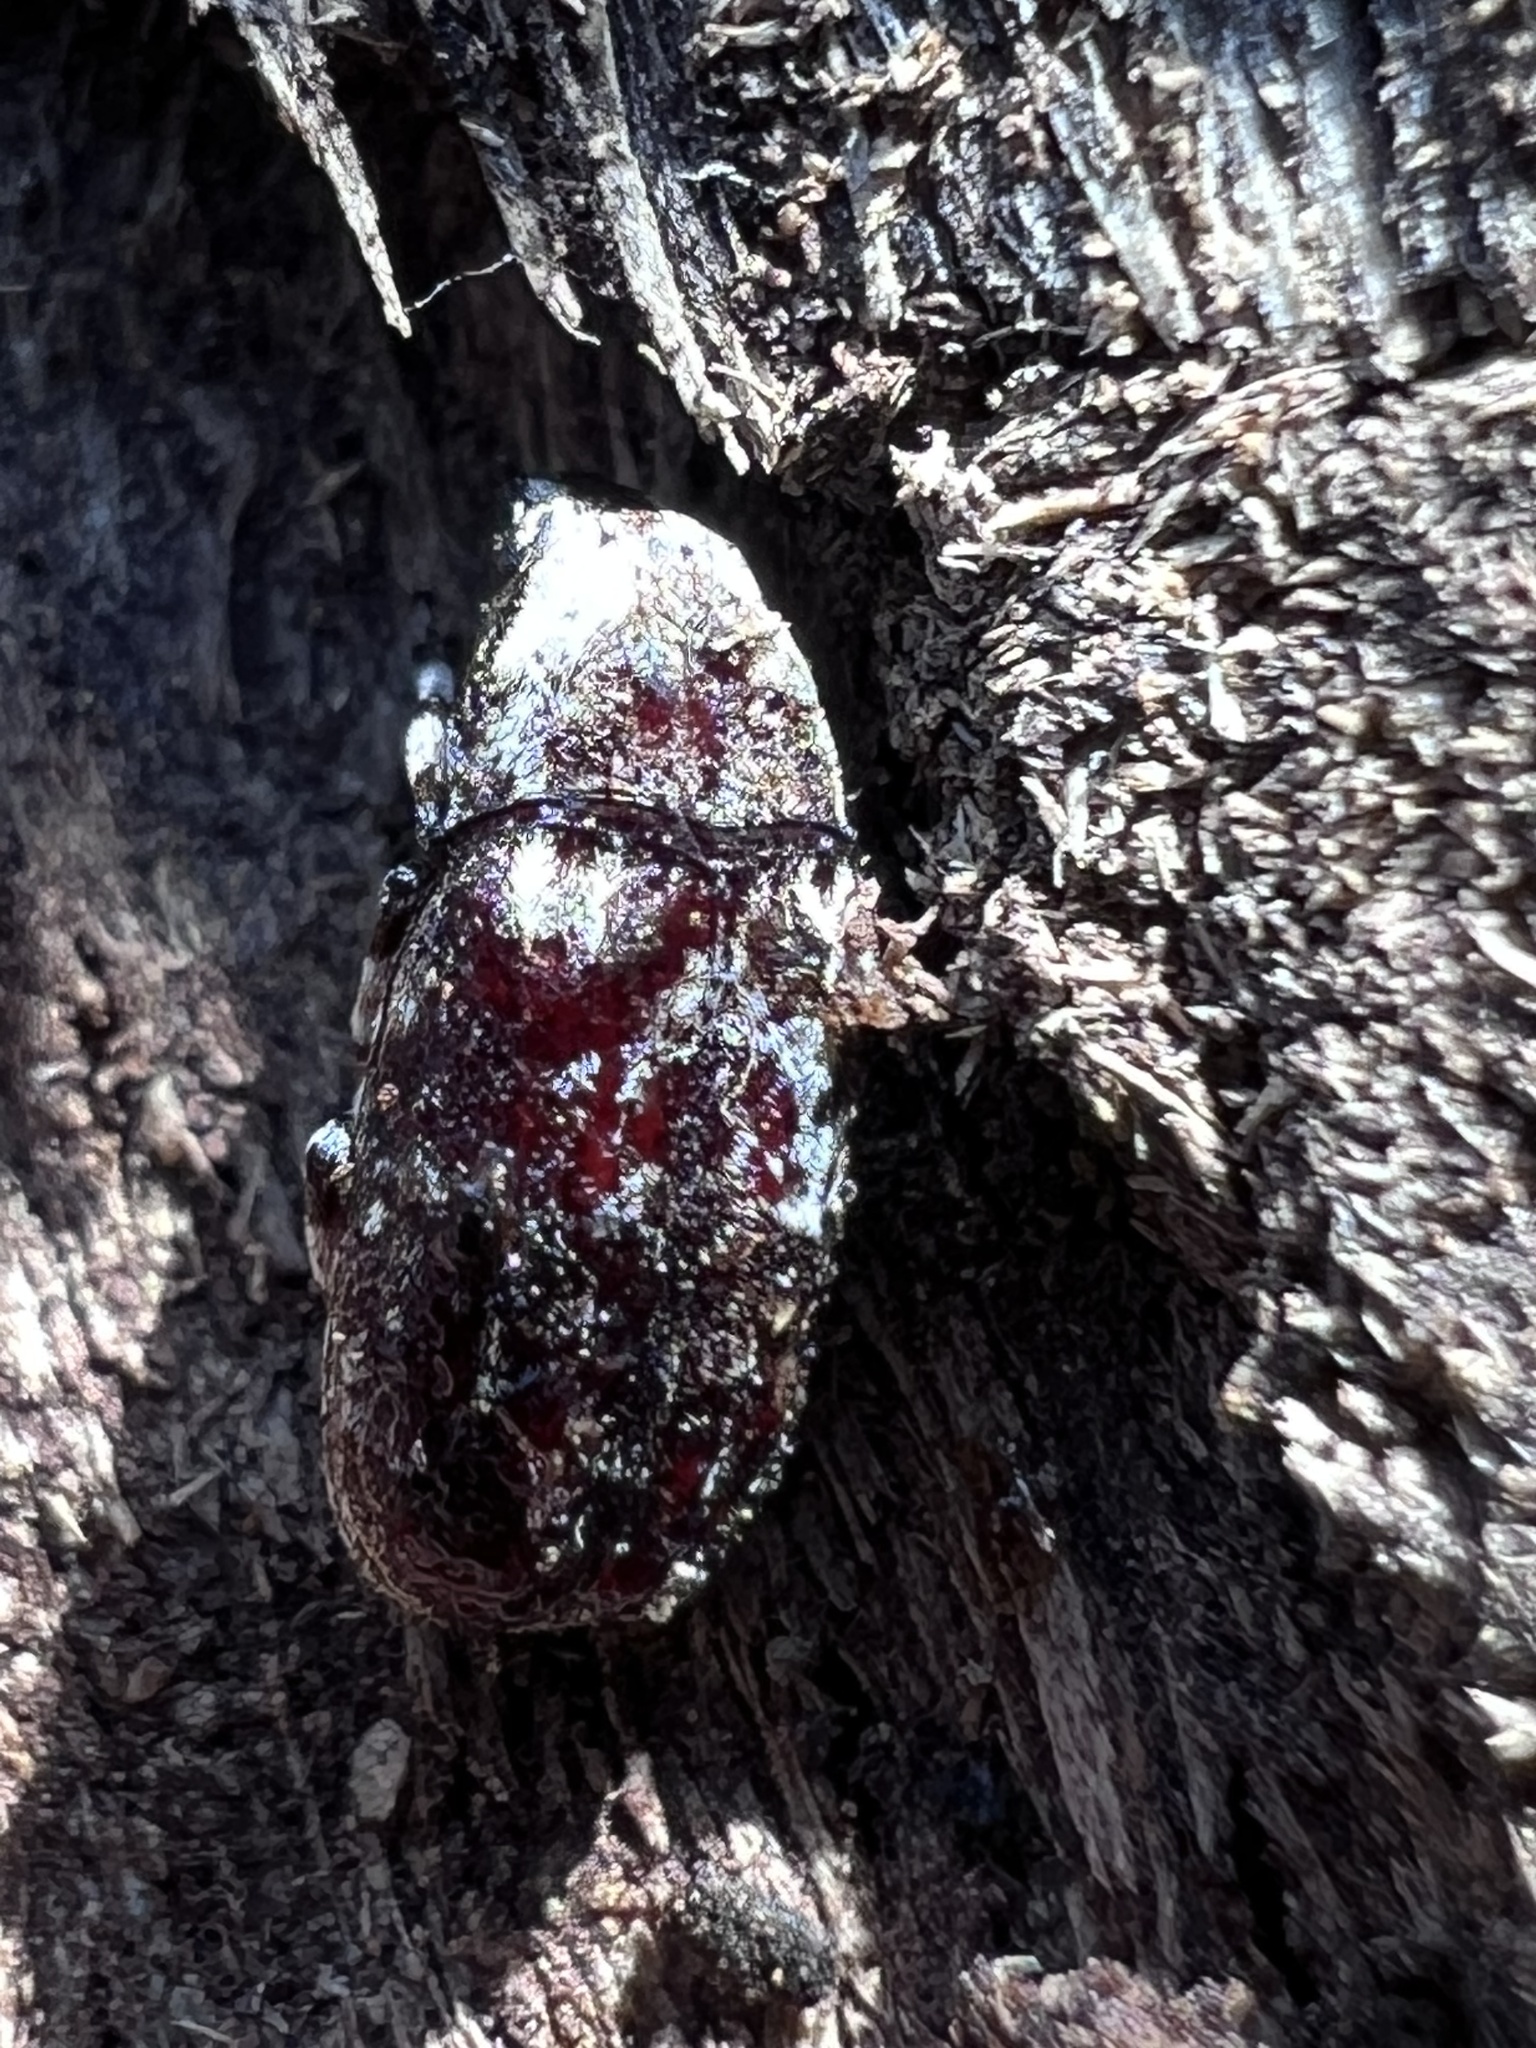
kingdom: Animalia
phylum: Arthropoda
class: Insecta
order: Coleoptera
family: Anthribidae
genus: Euparius
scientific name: Euparius marmoreus
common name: Marbled fungus weevil
